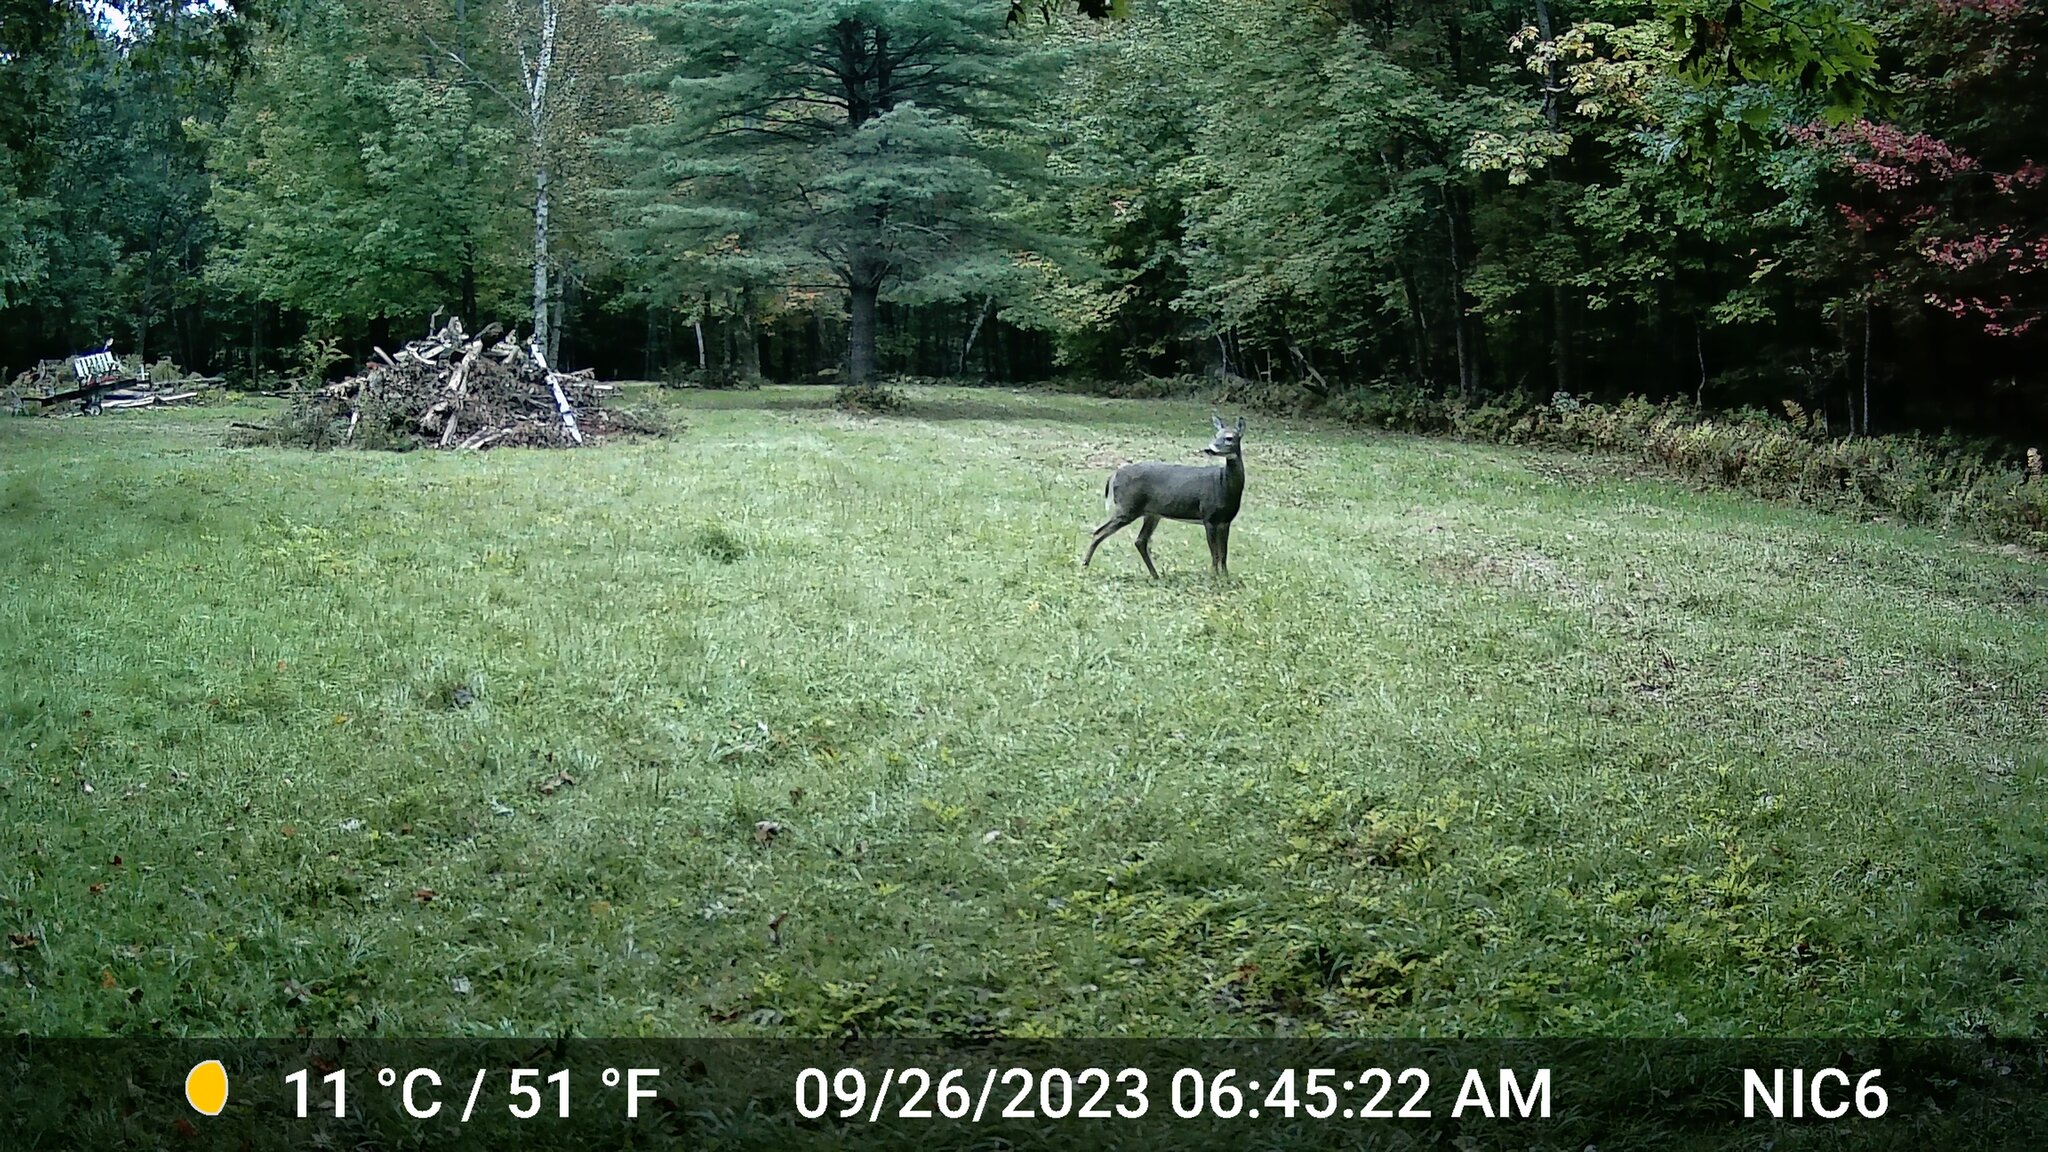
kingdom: Animalia
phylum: Chordata
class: Mammalia
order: Artiodactyla
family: Cervidae
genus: Odocoileus
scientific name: Odocoileus virginianus
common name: White-tailed deer
